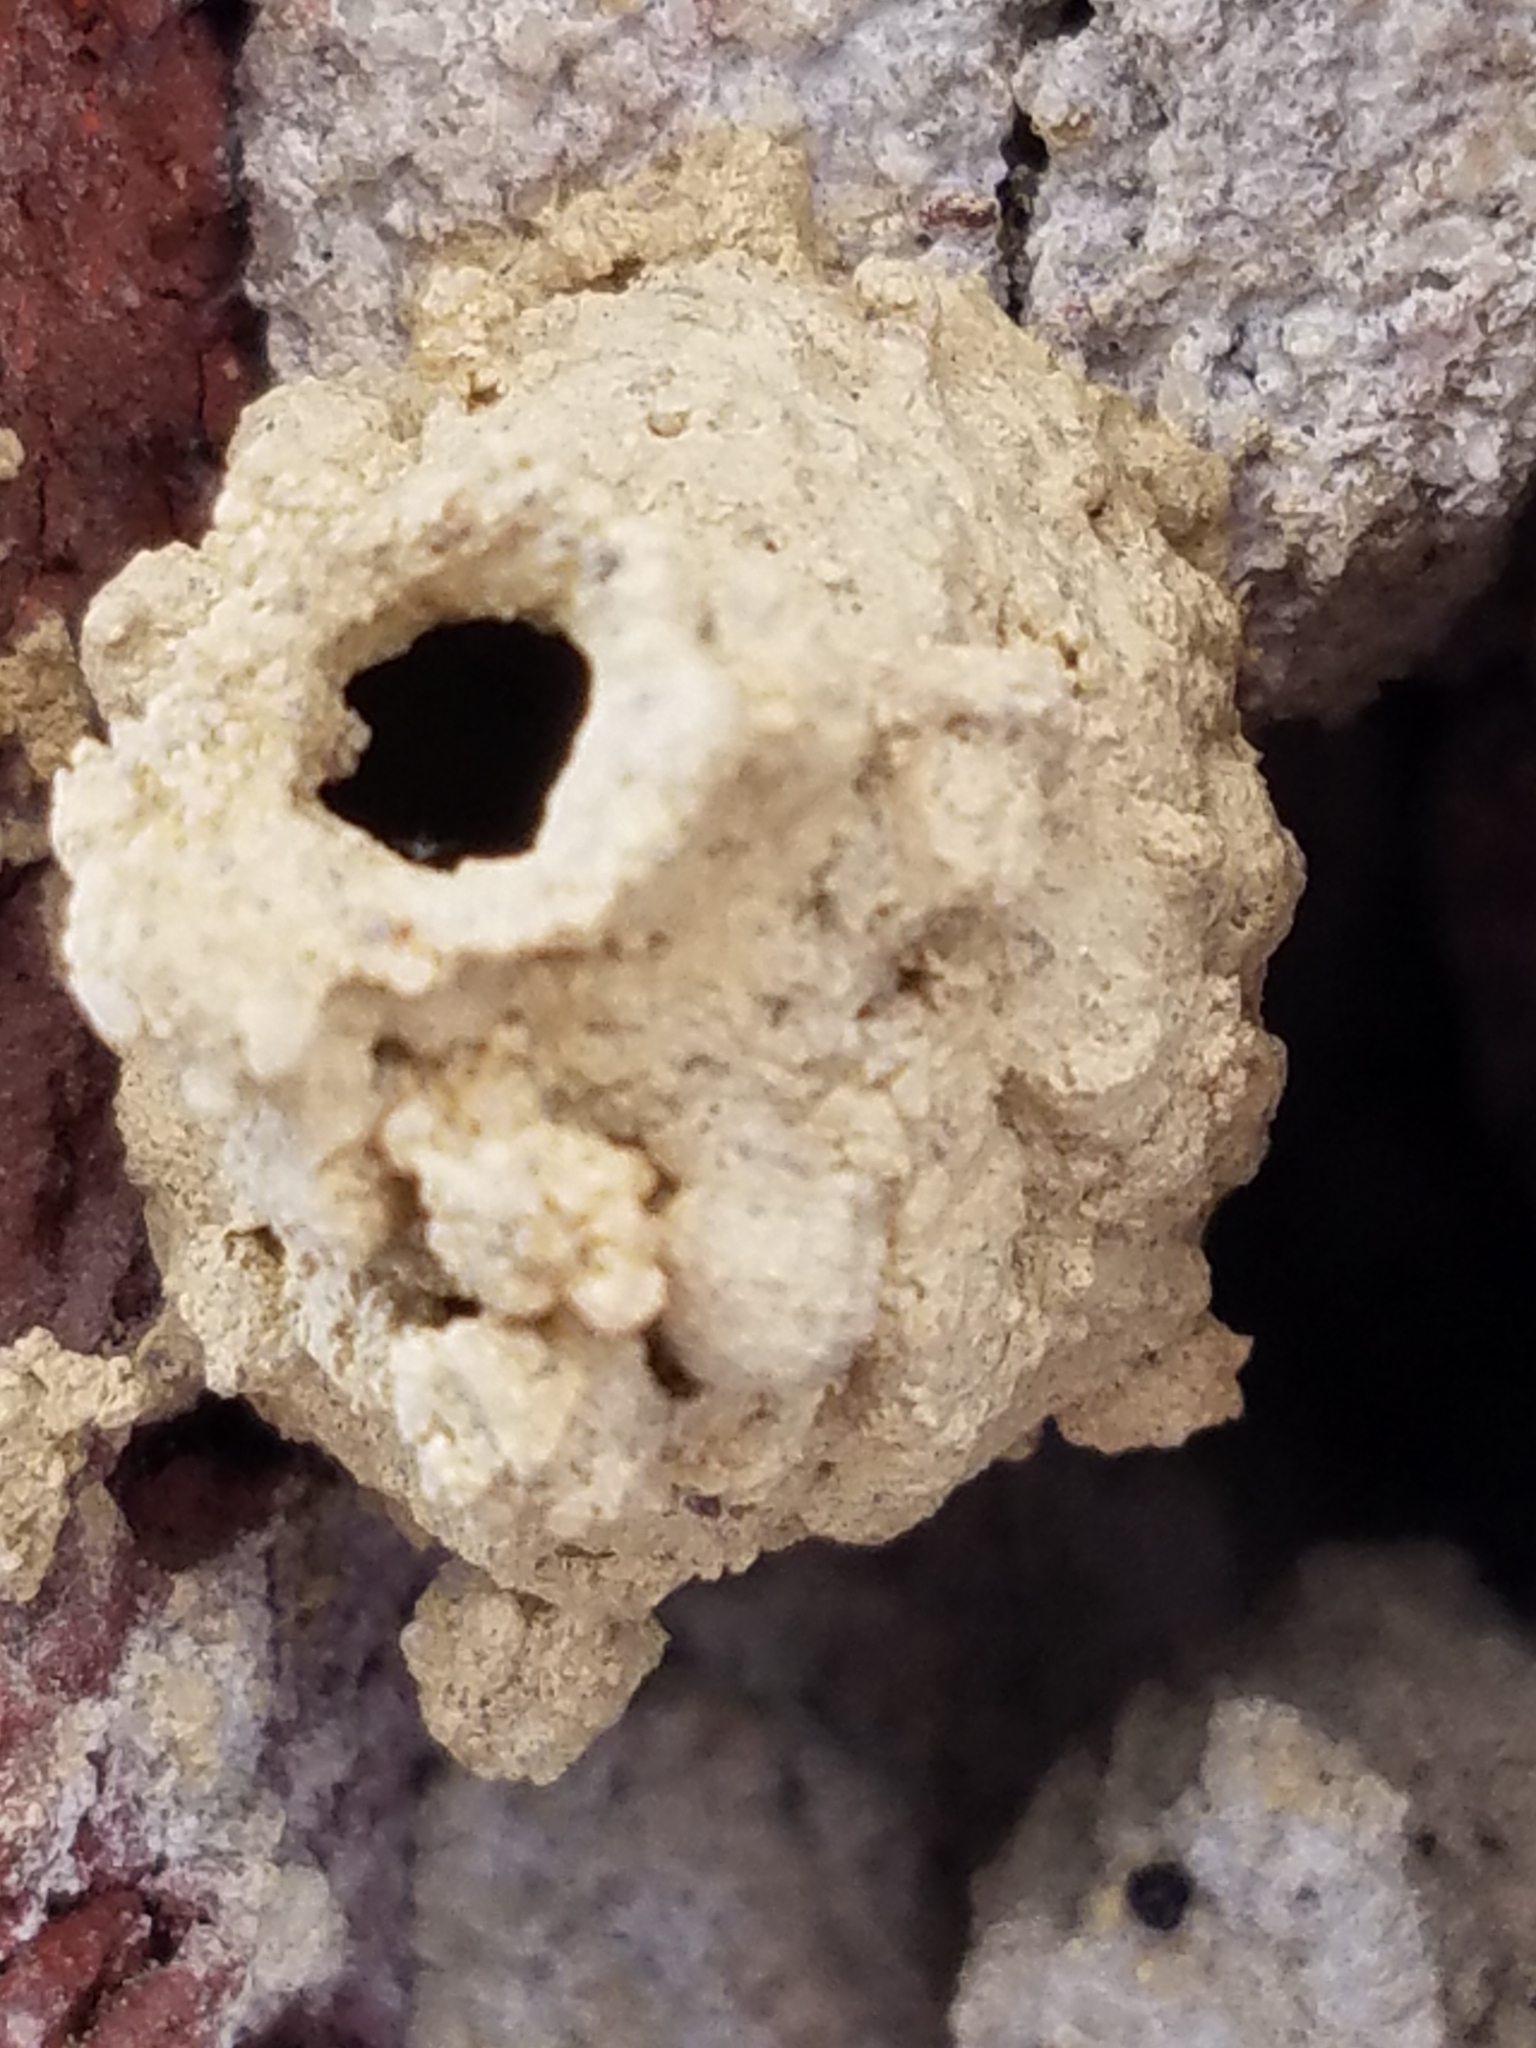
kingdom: Animalia
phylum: Arthropoda
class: Insecta
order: Hymenoptera
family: Vespidae
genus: Eumenes
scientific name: Eumenes
